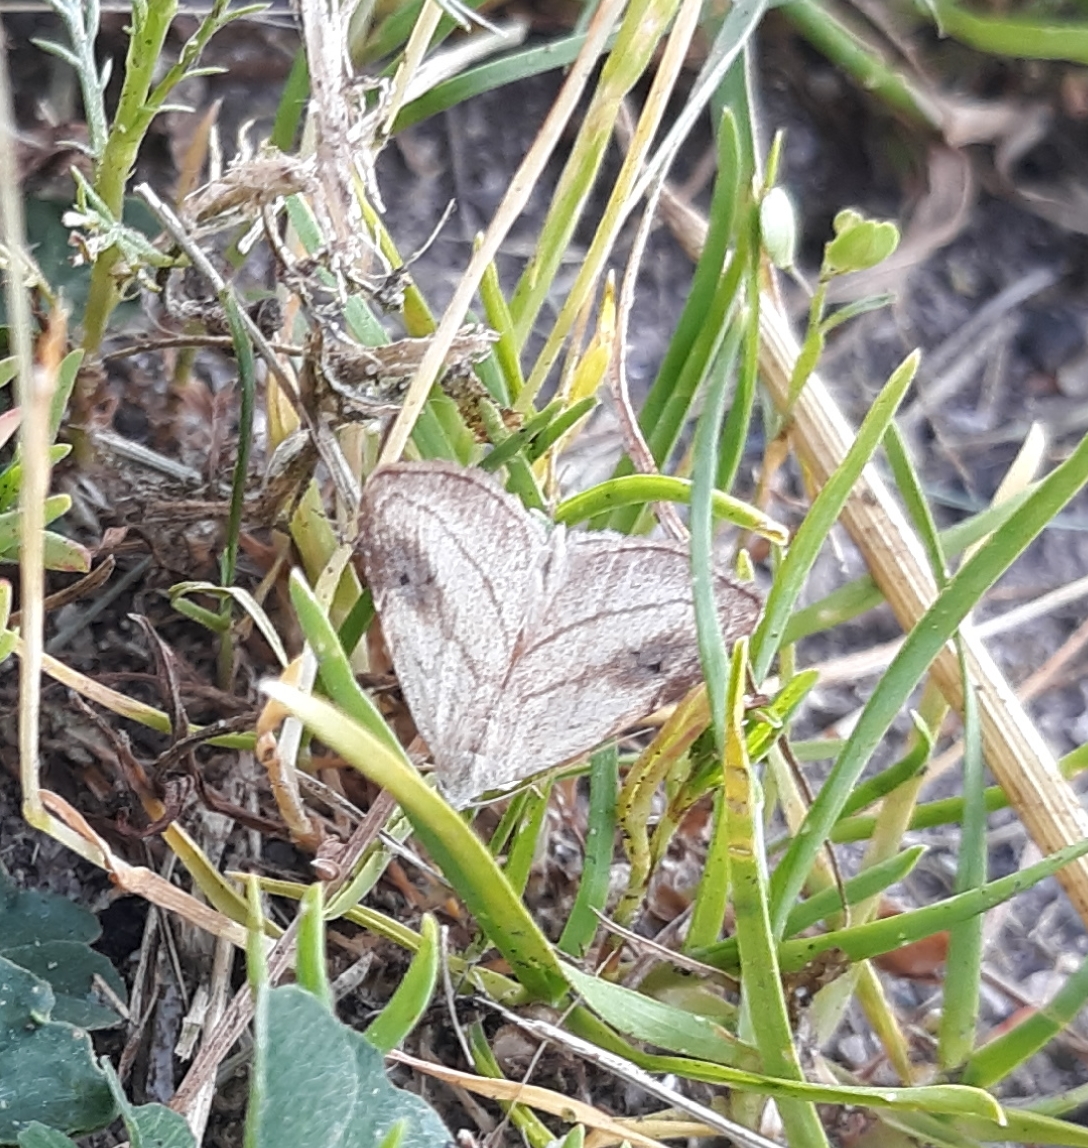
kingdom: Animalia
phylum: Arthropoda
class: Insecta
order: Lepidoptera
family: Erebidae
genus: Rivula
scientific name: Rivula propinqualis
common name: Spotted grass moth
